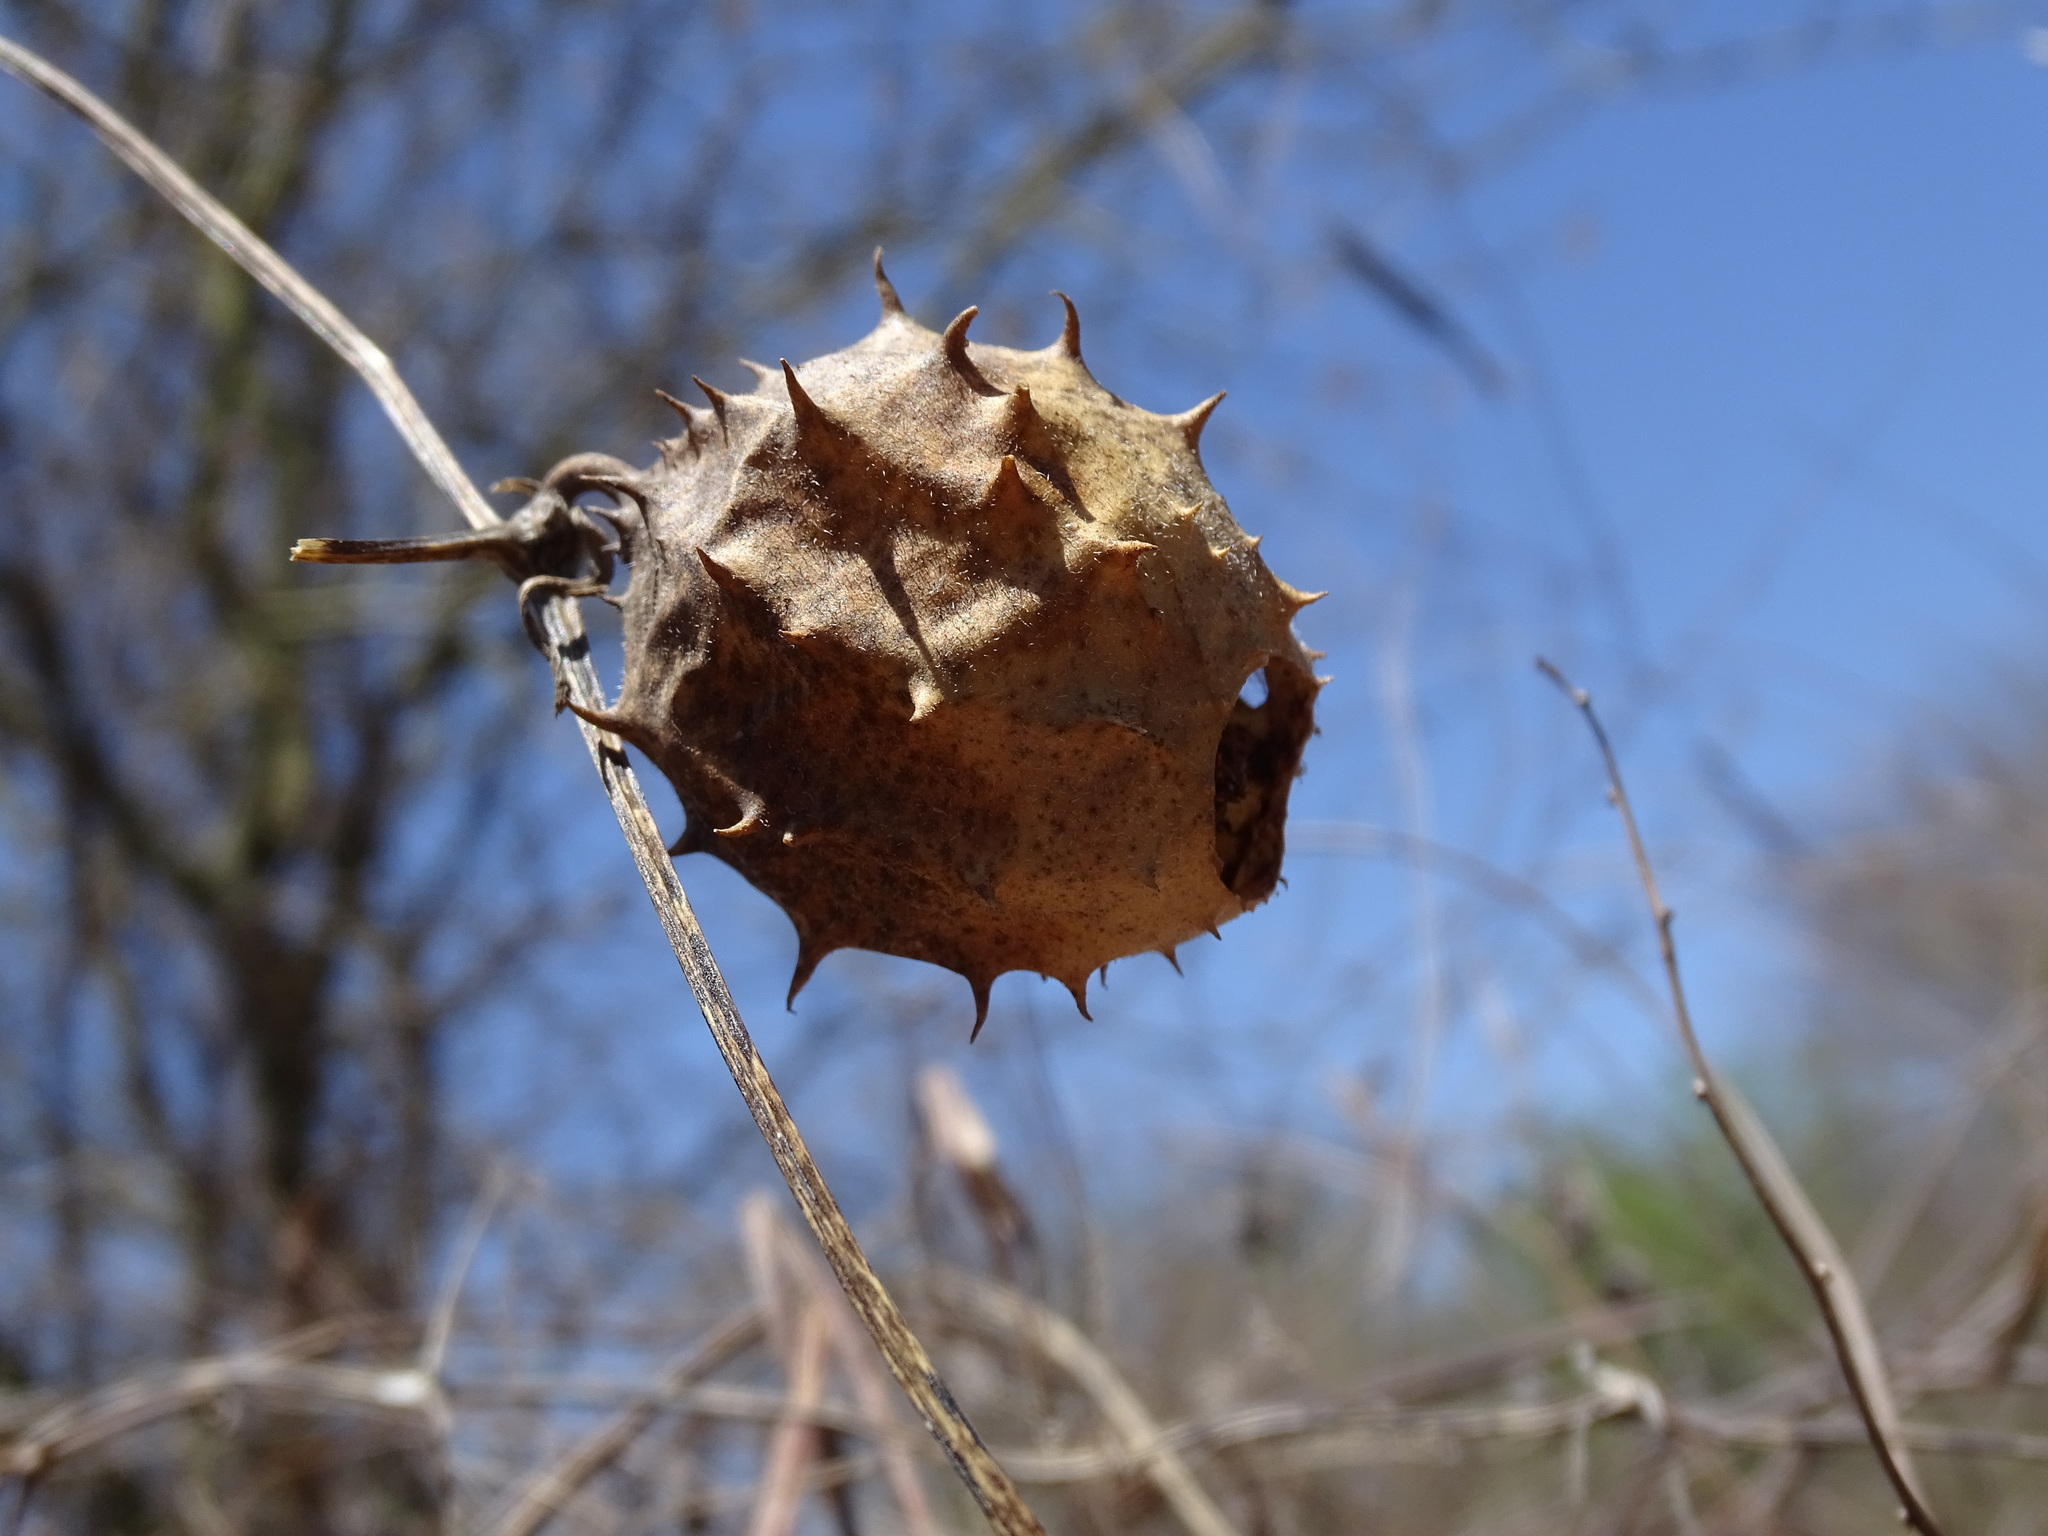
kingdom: Plantae
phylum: Tracheophyta
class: Magnoliopsida
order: Cucurbitales
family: Cucurbitaceae
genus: Luffa
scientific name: Luffa operculata
